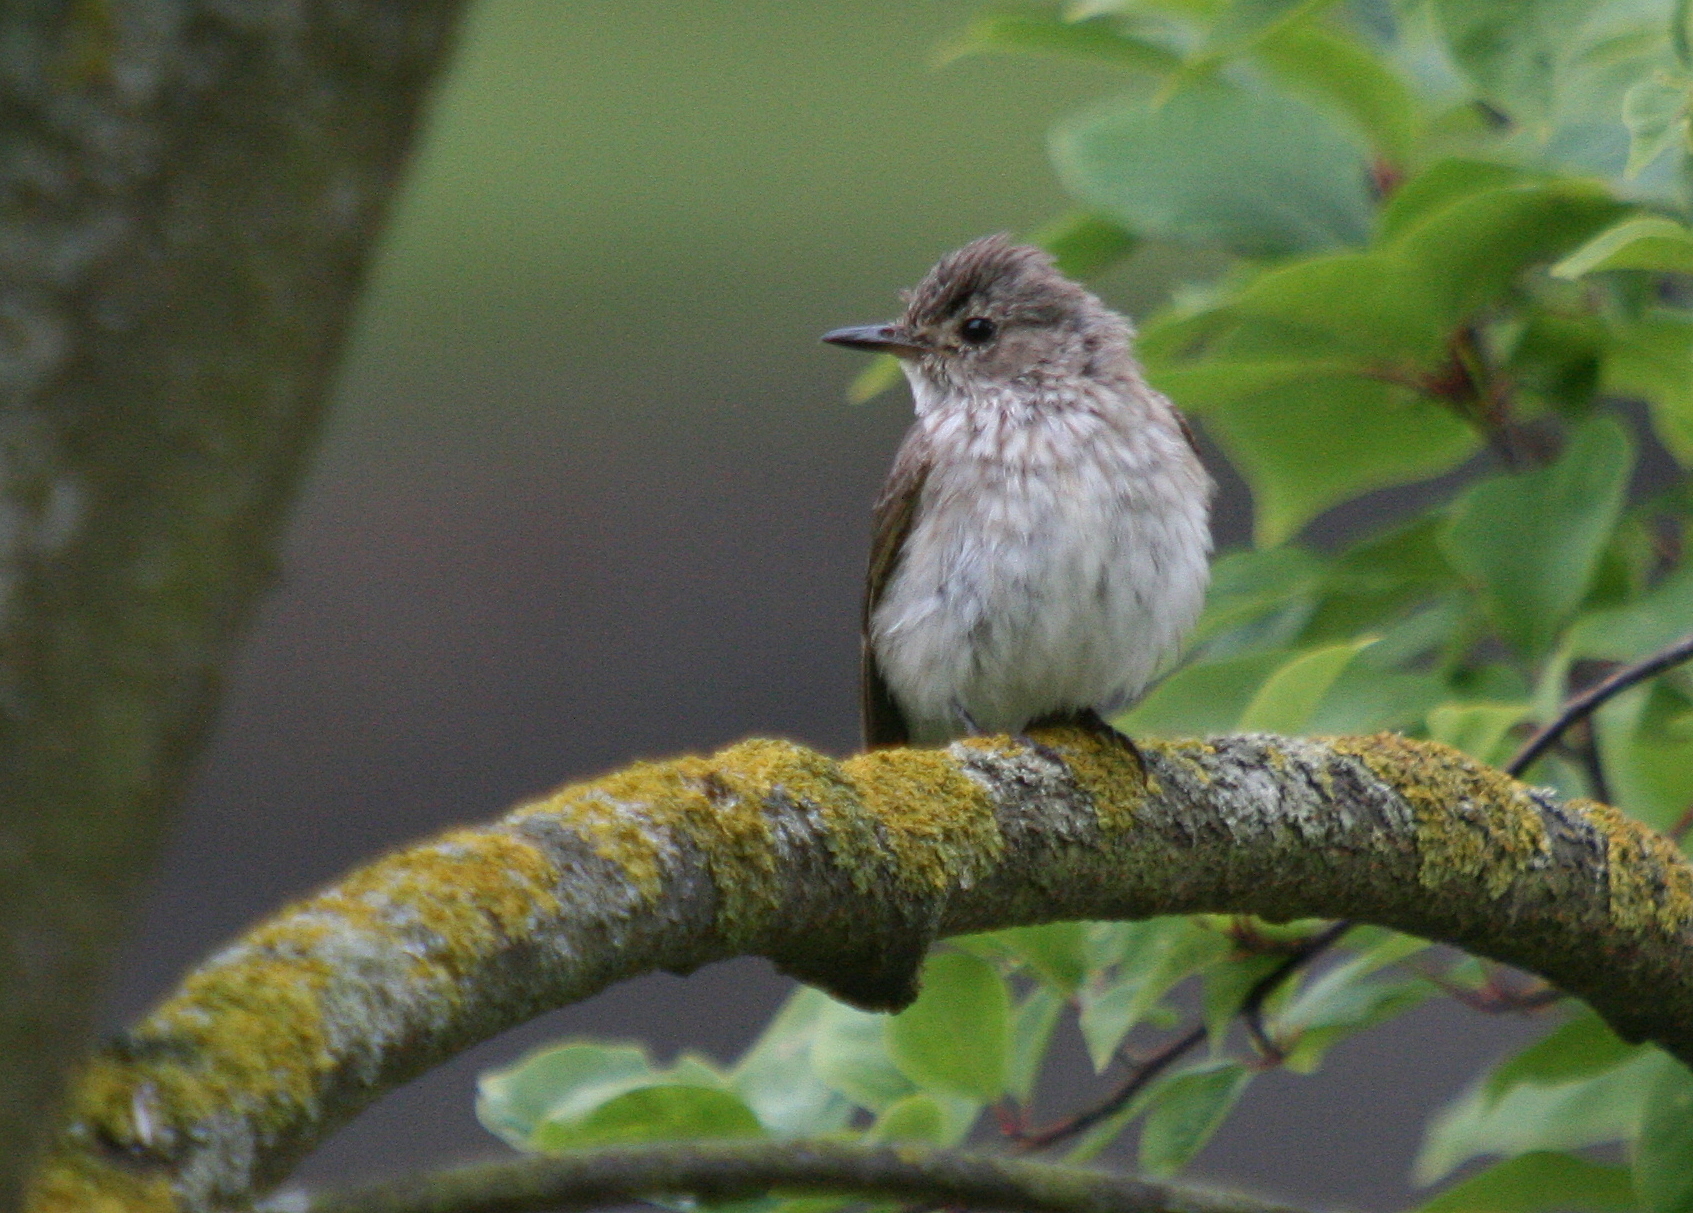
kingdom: Animalia
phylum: Chordata
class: Aves
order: Passeriformes
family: Muscicapidae
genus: Muscicapa
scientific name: Muscicapa striata
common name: Spotted flycatcher
